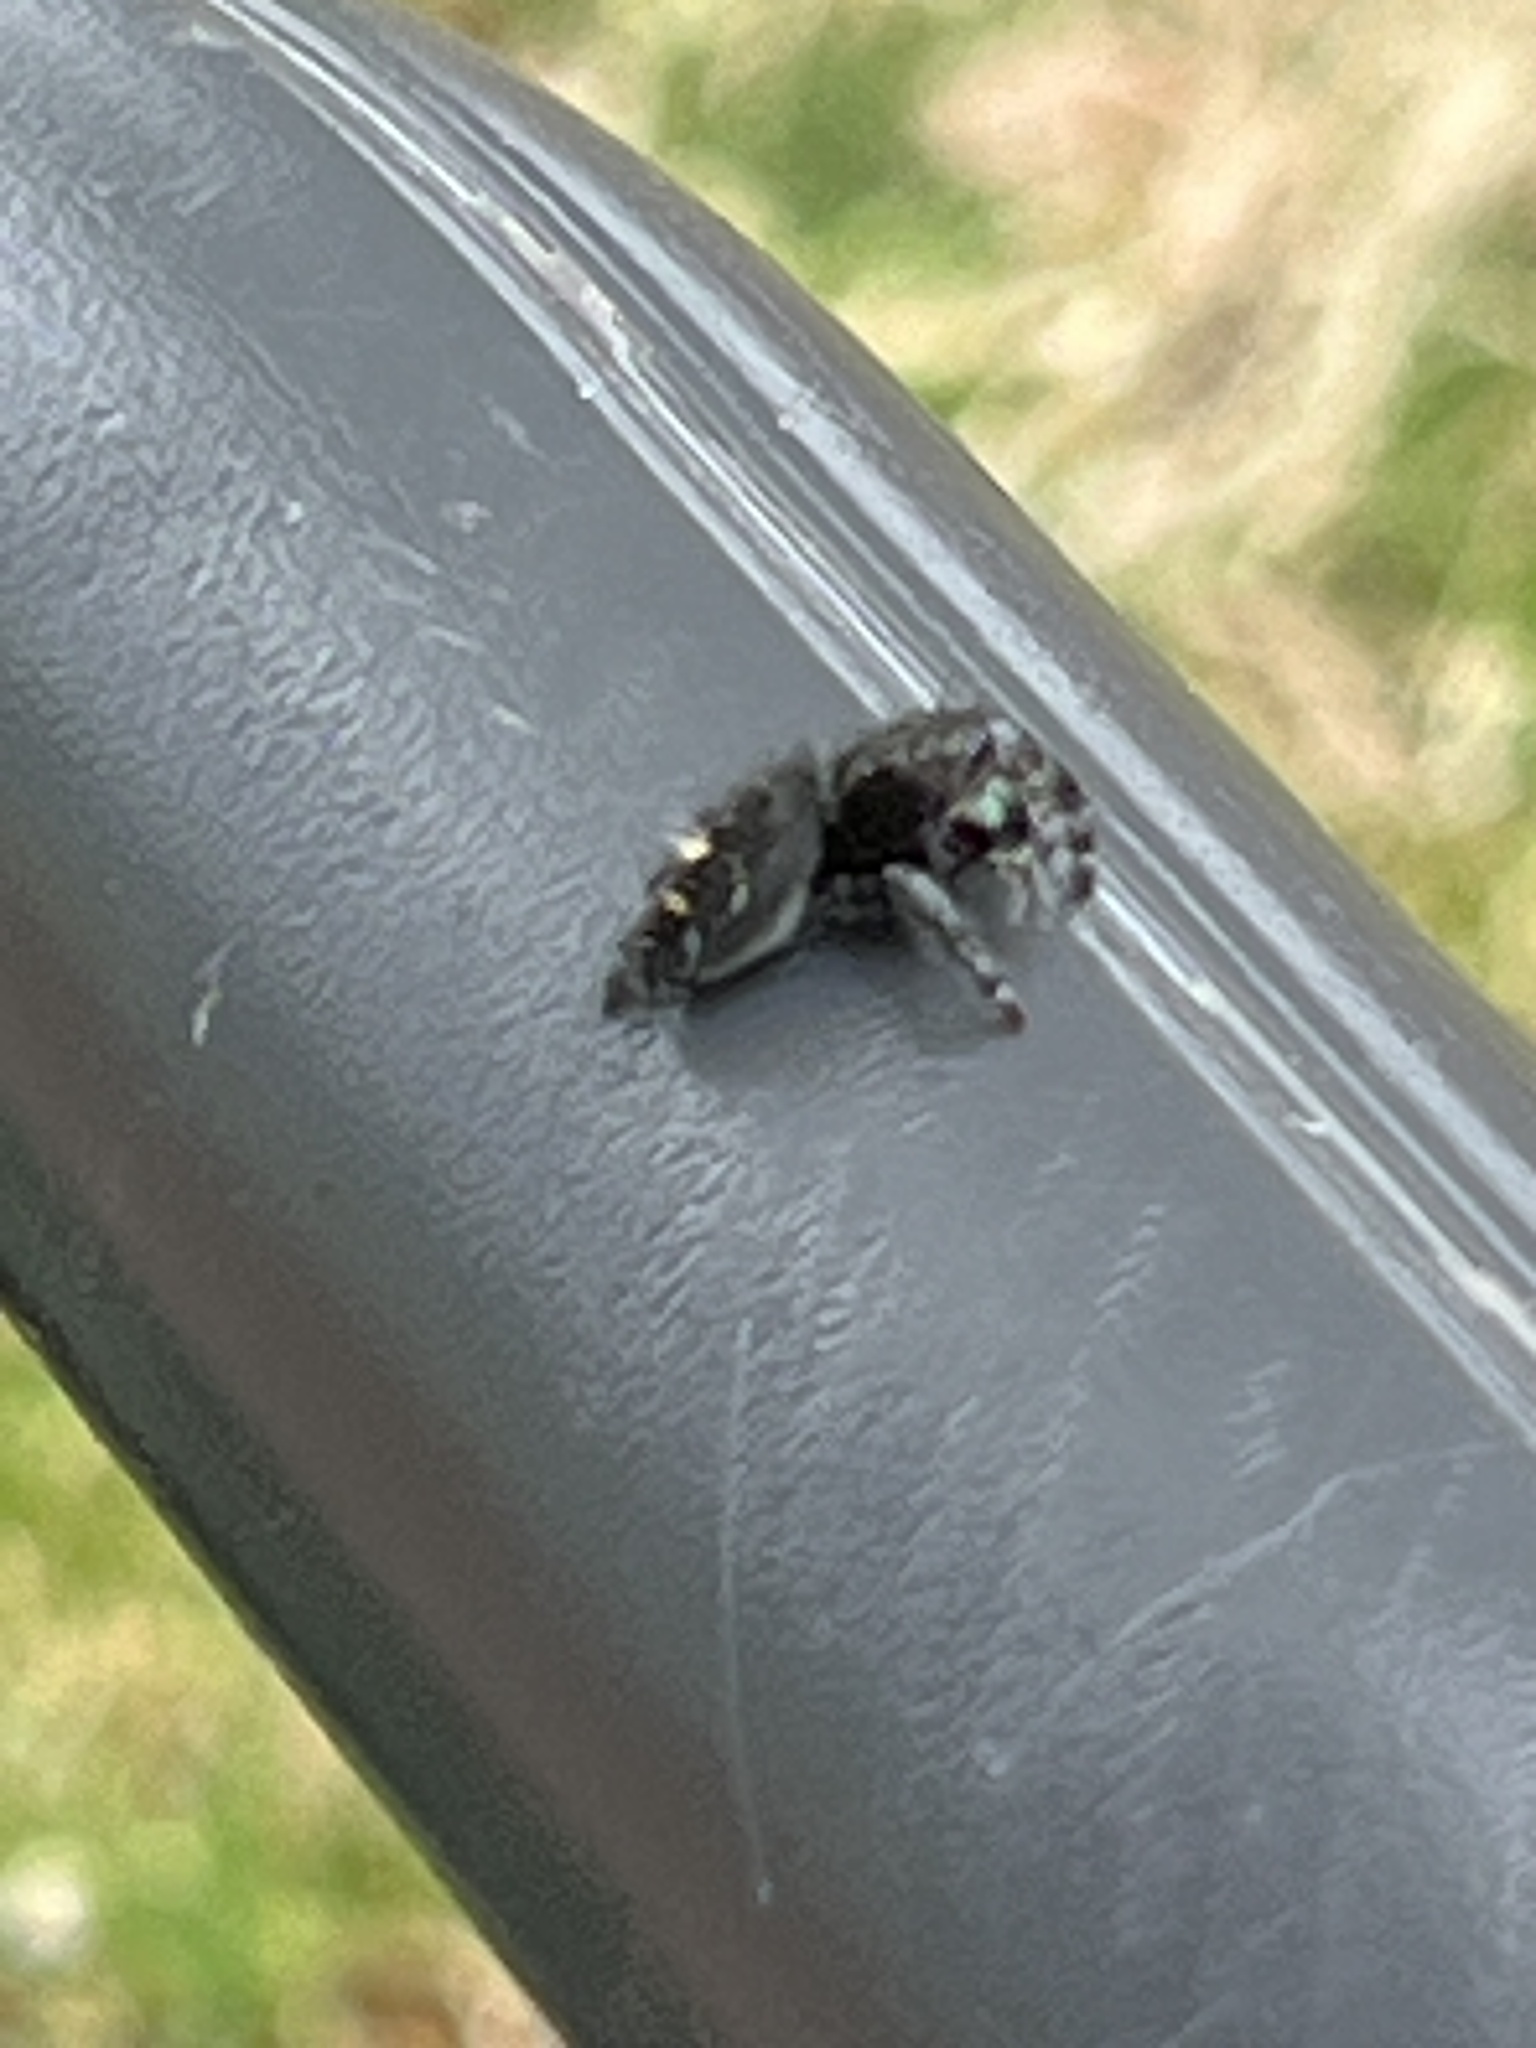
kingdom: Animalia
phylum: Arthropoda
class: Arachnida
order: Araneae
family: Salticidae
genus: Phidippus
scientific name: Phidippus audax
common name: Bold jumper
